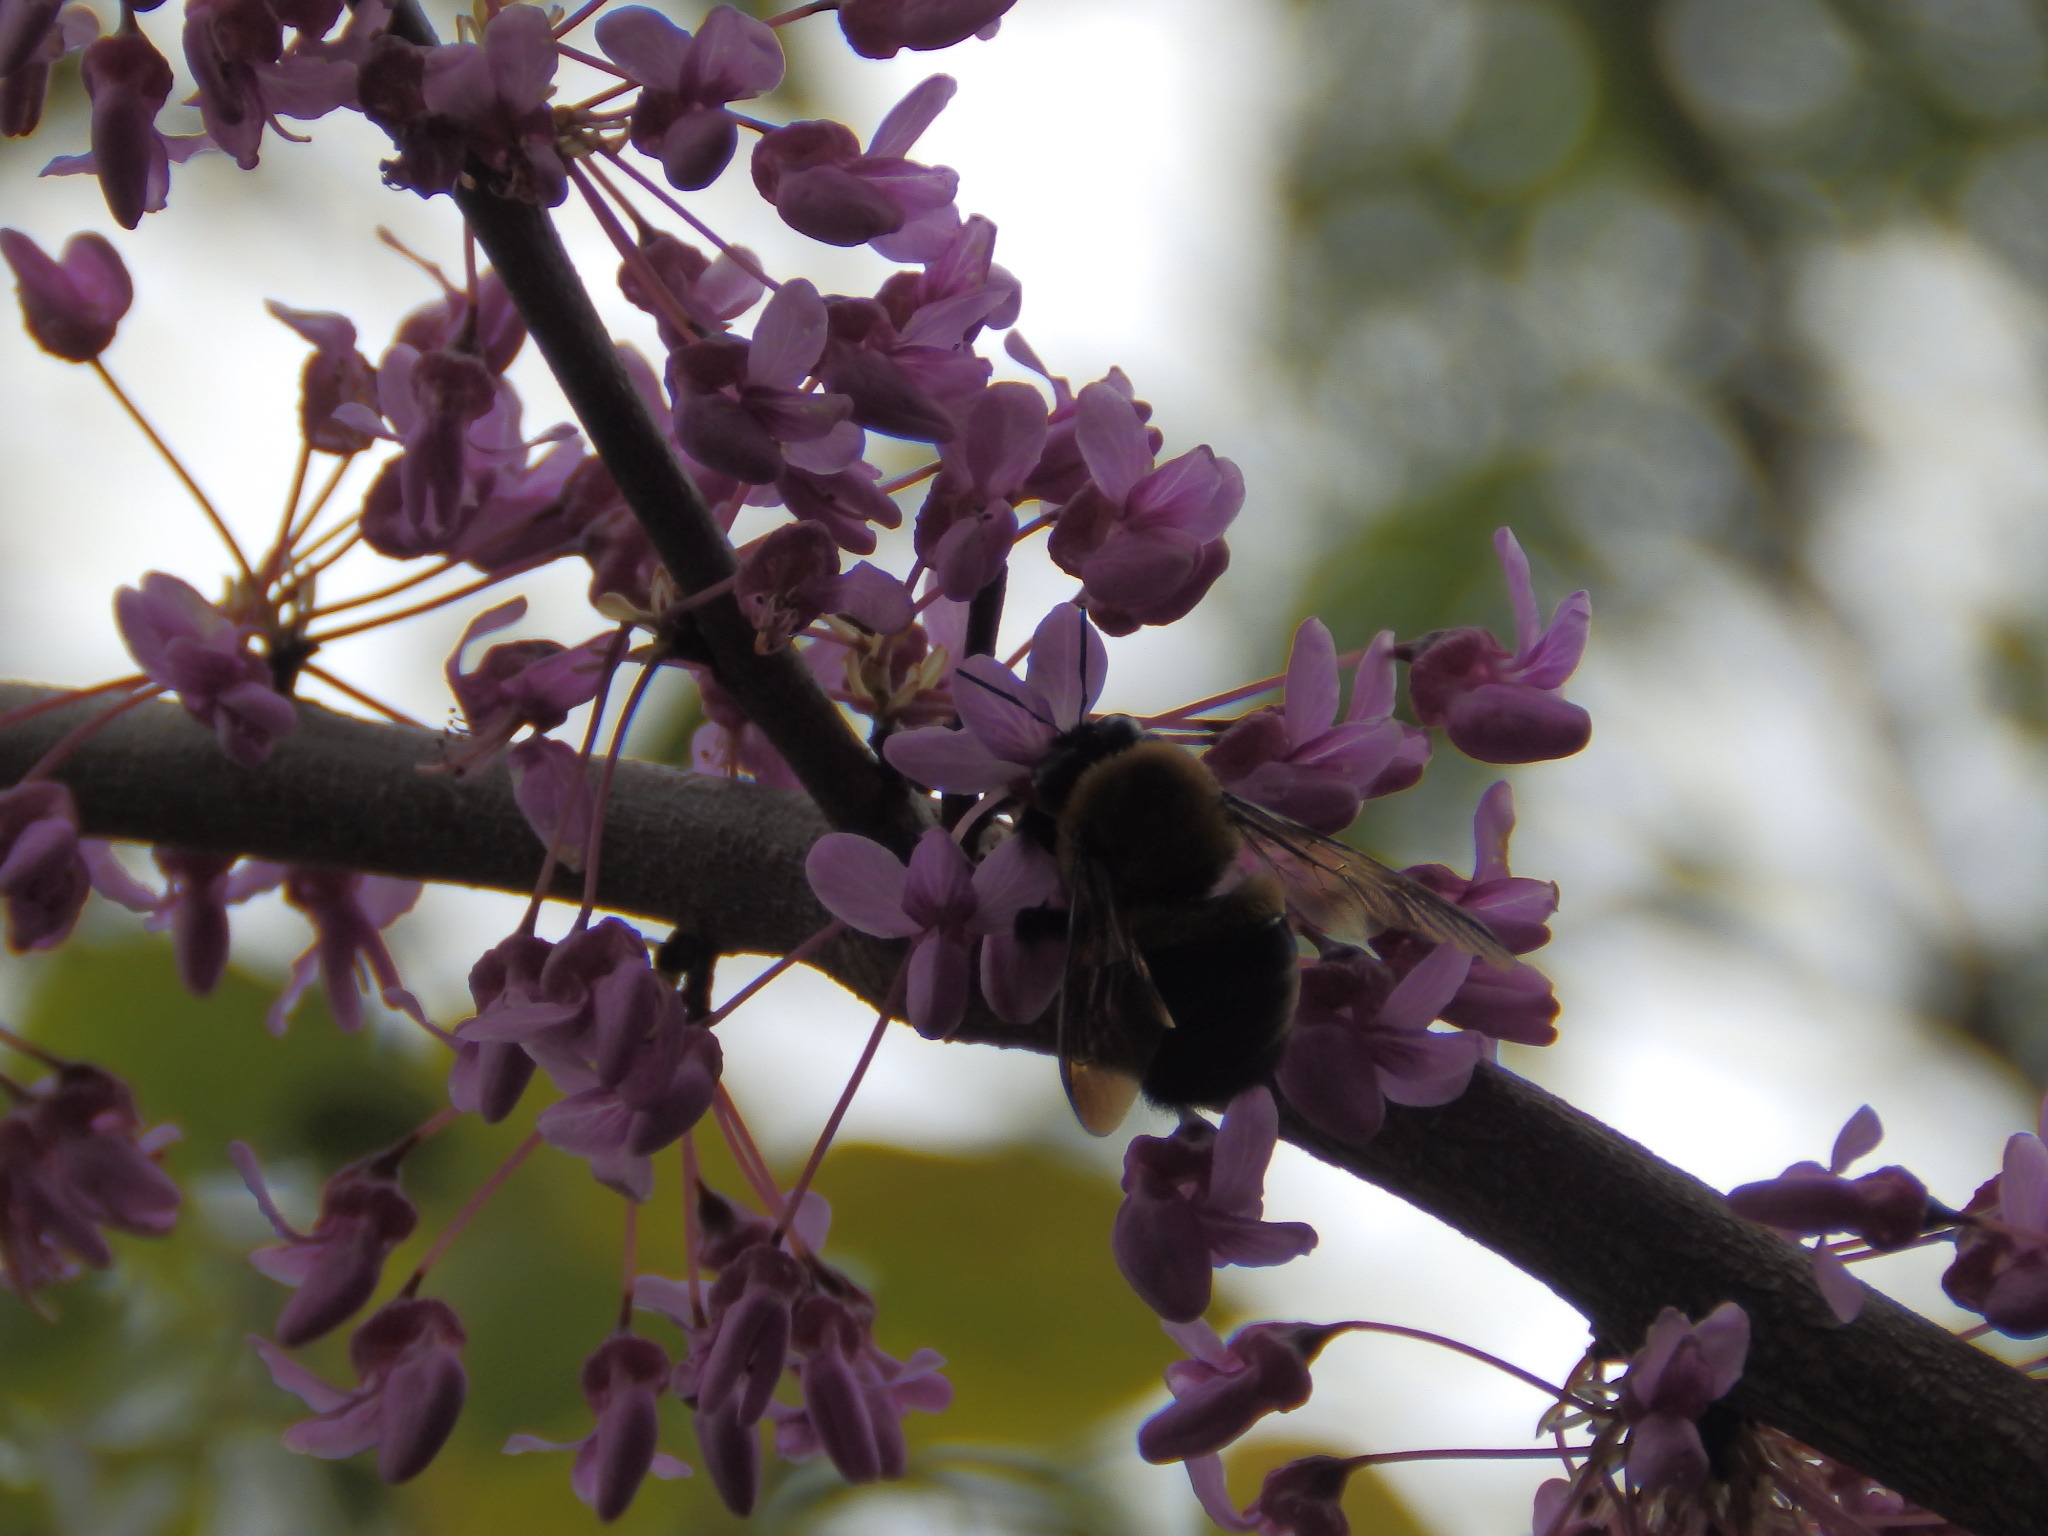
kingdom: Animalia
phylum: Arthropoda
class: Insecta
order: Hymenoptera
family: Apidae
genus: Xylocopa
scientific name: Xylocopa virginica
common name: Carpenter bee
